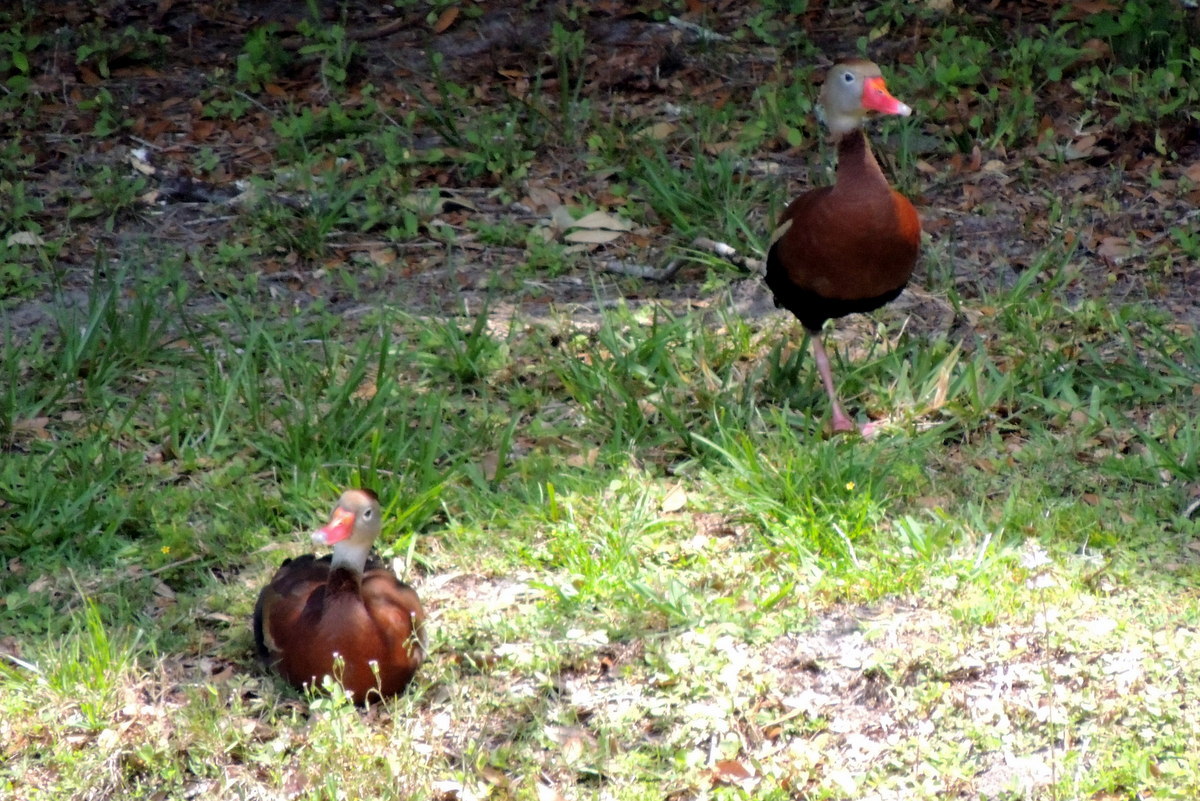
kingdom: Animalia
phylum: Chordata
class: Aves
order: Anseriformes
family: Anatidae
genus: Dendrocygna
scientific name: Dendrocygna autumnalis
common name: Black-bellied whistling duck
